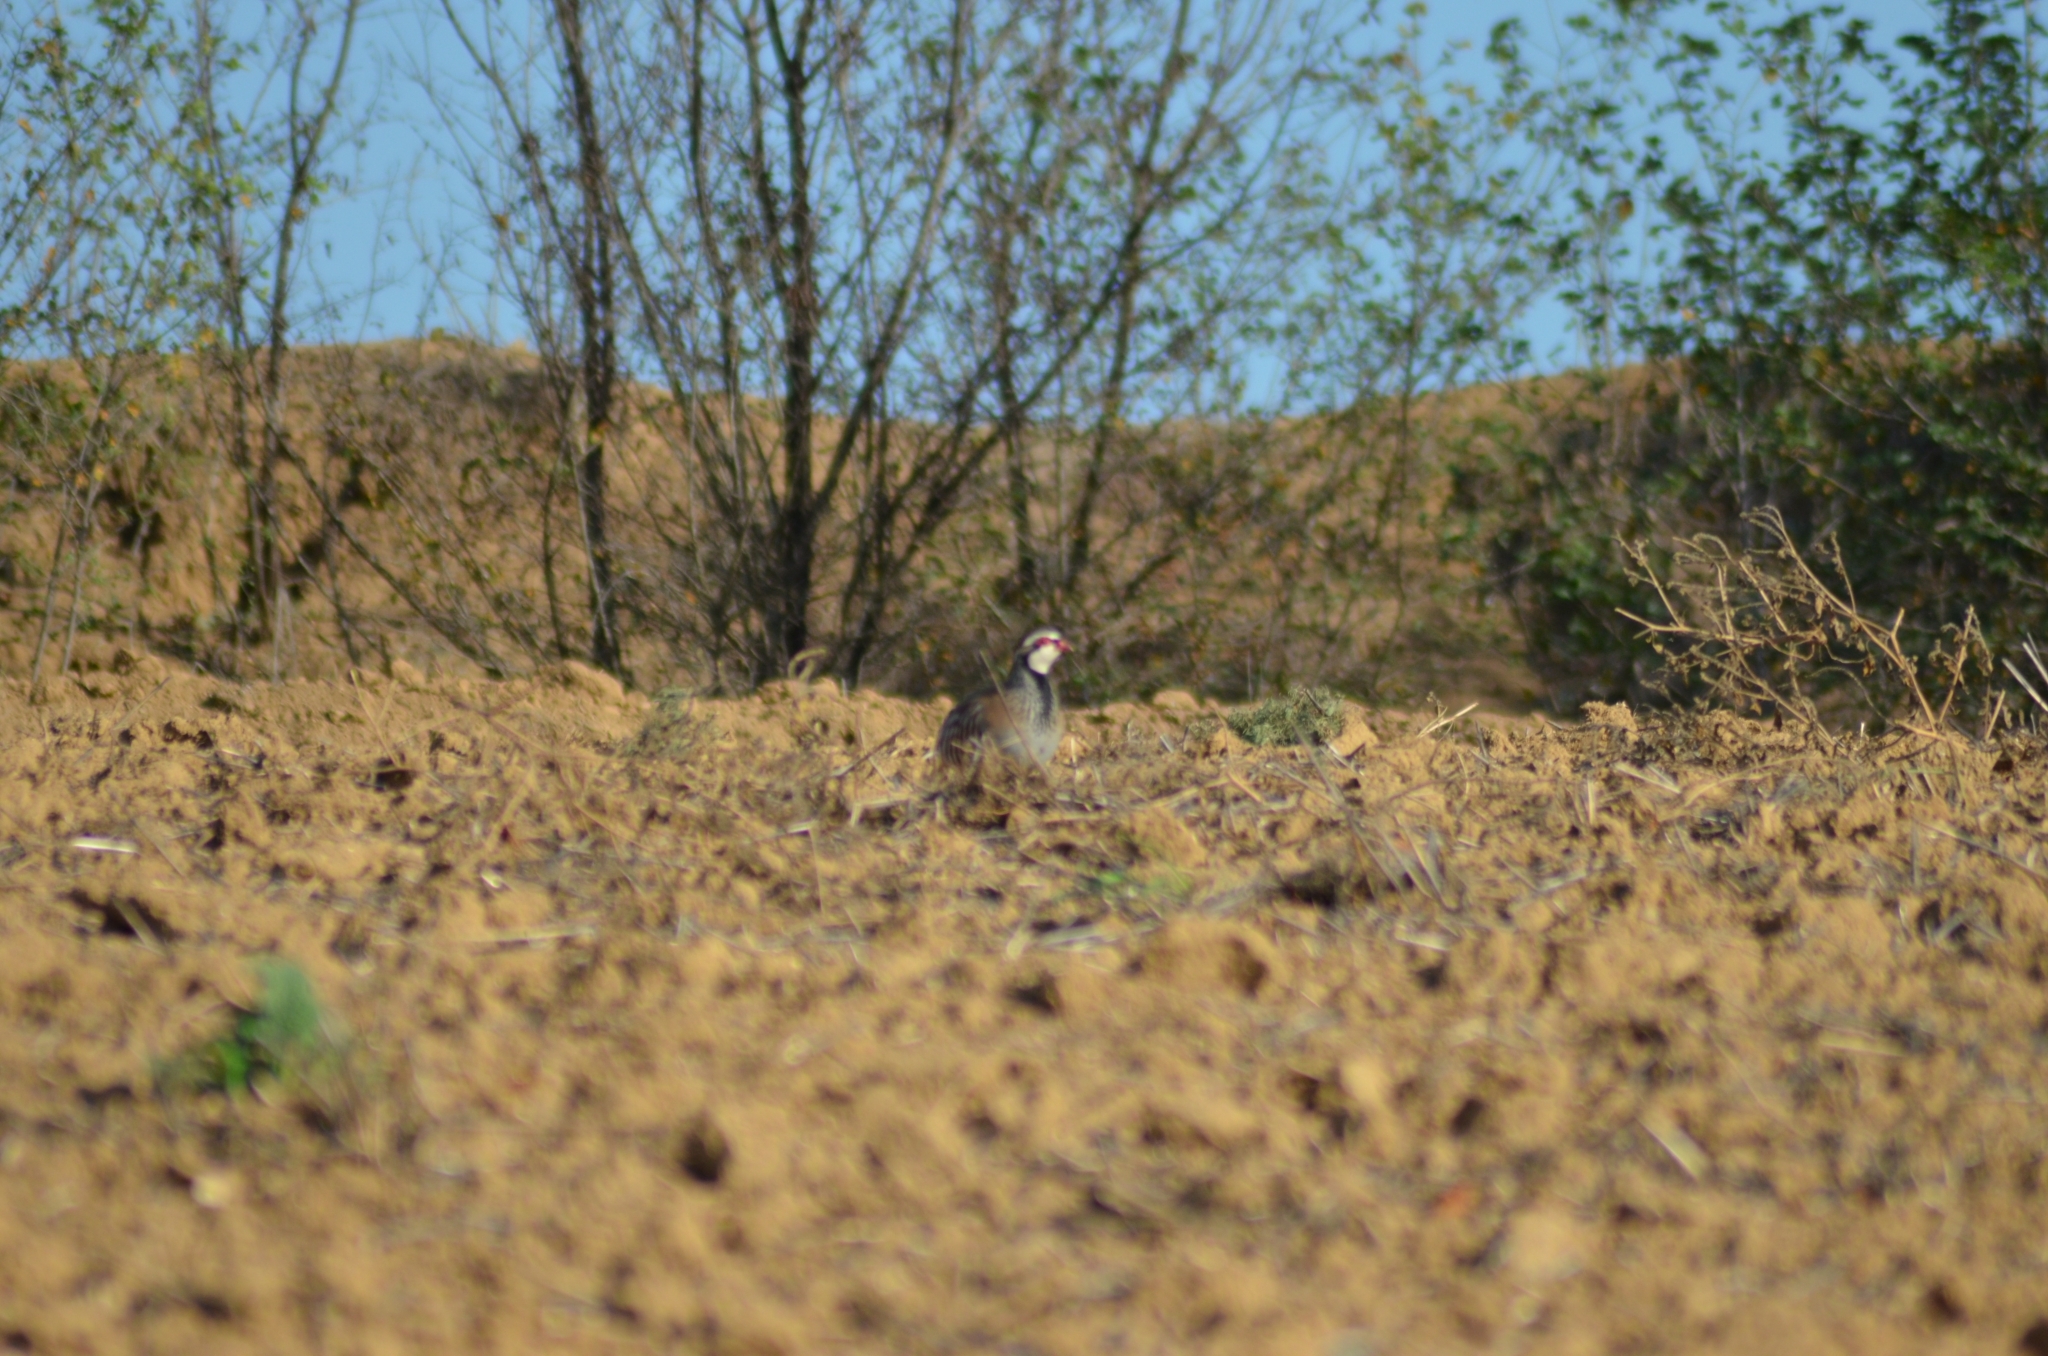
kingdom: Animalia
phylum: Chordata
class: Aves
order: Galliformes
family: Phasianidae
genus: Alectoris
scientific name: Alectoris rufa
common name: Red-legged partridge
